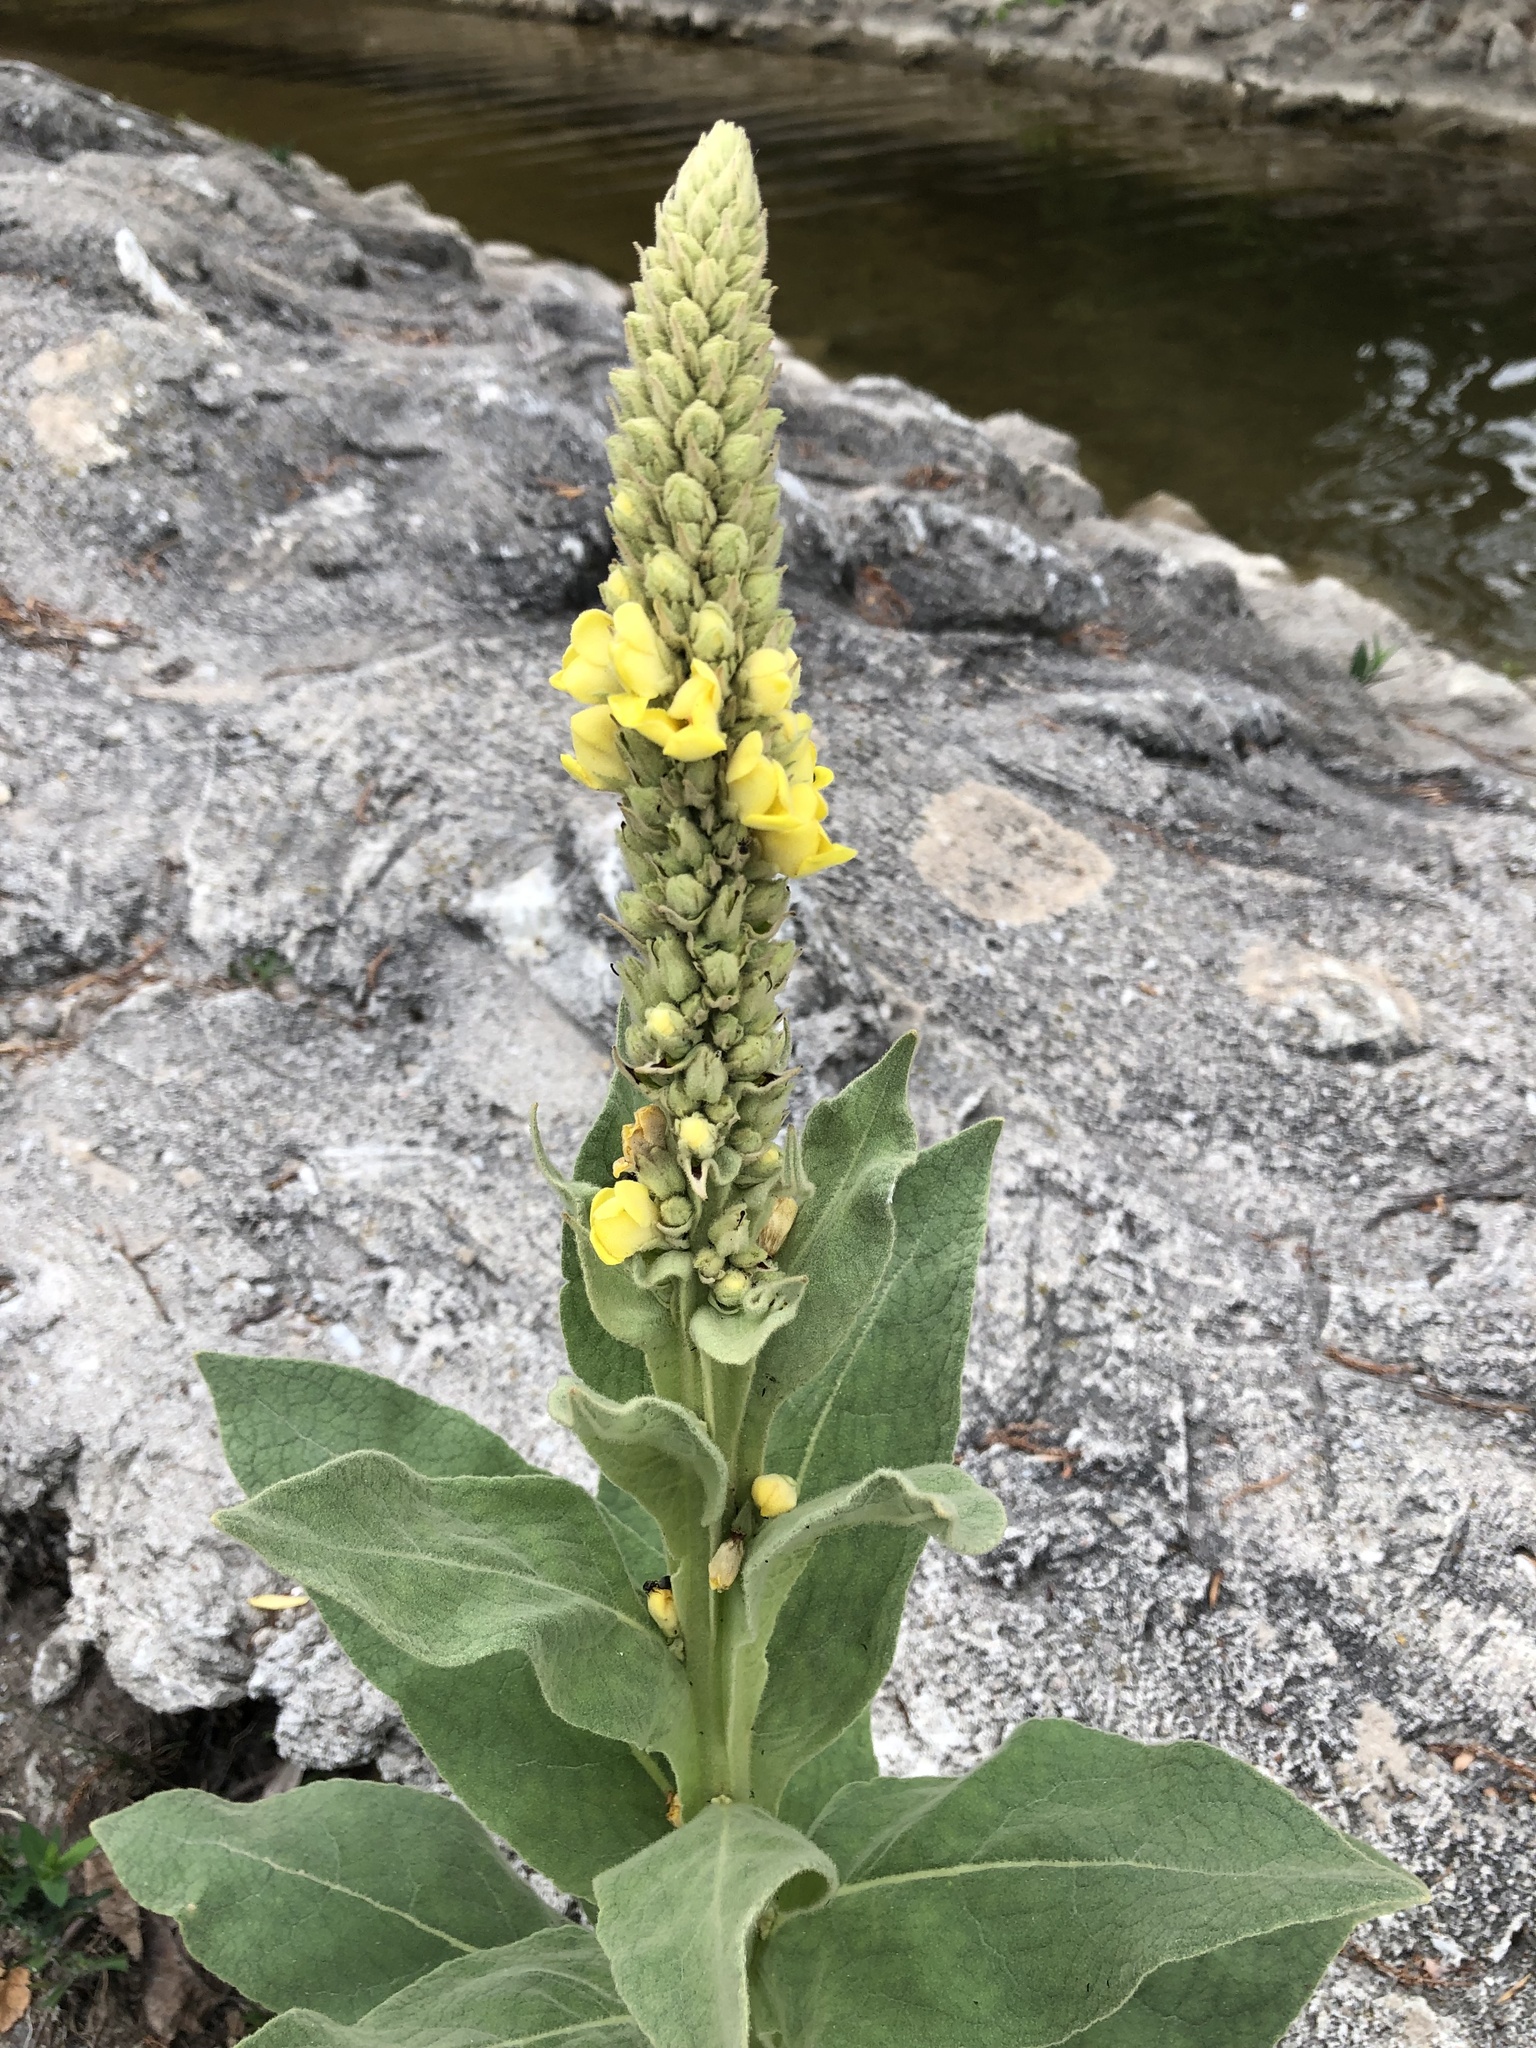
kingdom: Plantae
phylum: Tracheophyta
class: Magnoliopsida
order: Lamiales
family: Scrophulariaceae
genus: Verbascum
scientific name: Verbascum thapsus
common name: Common mullein
